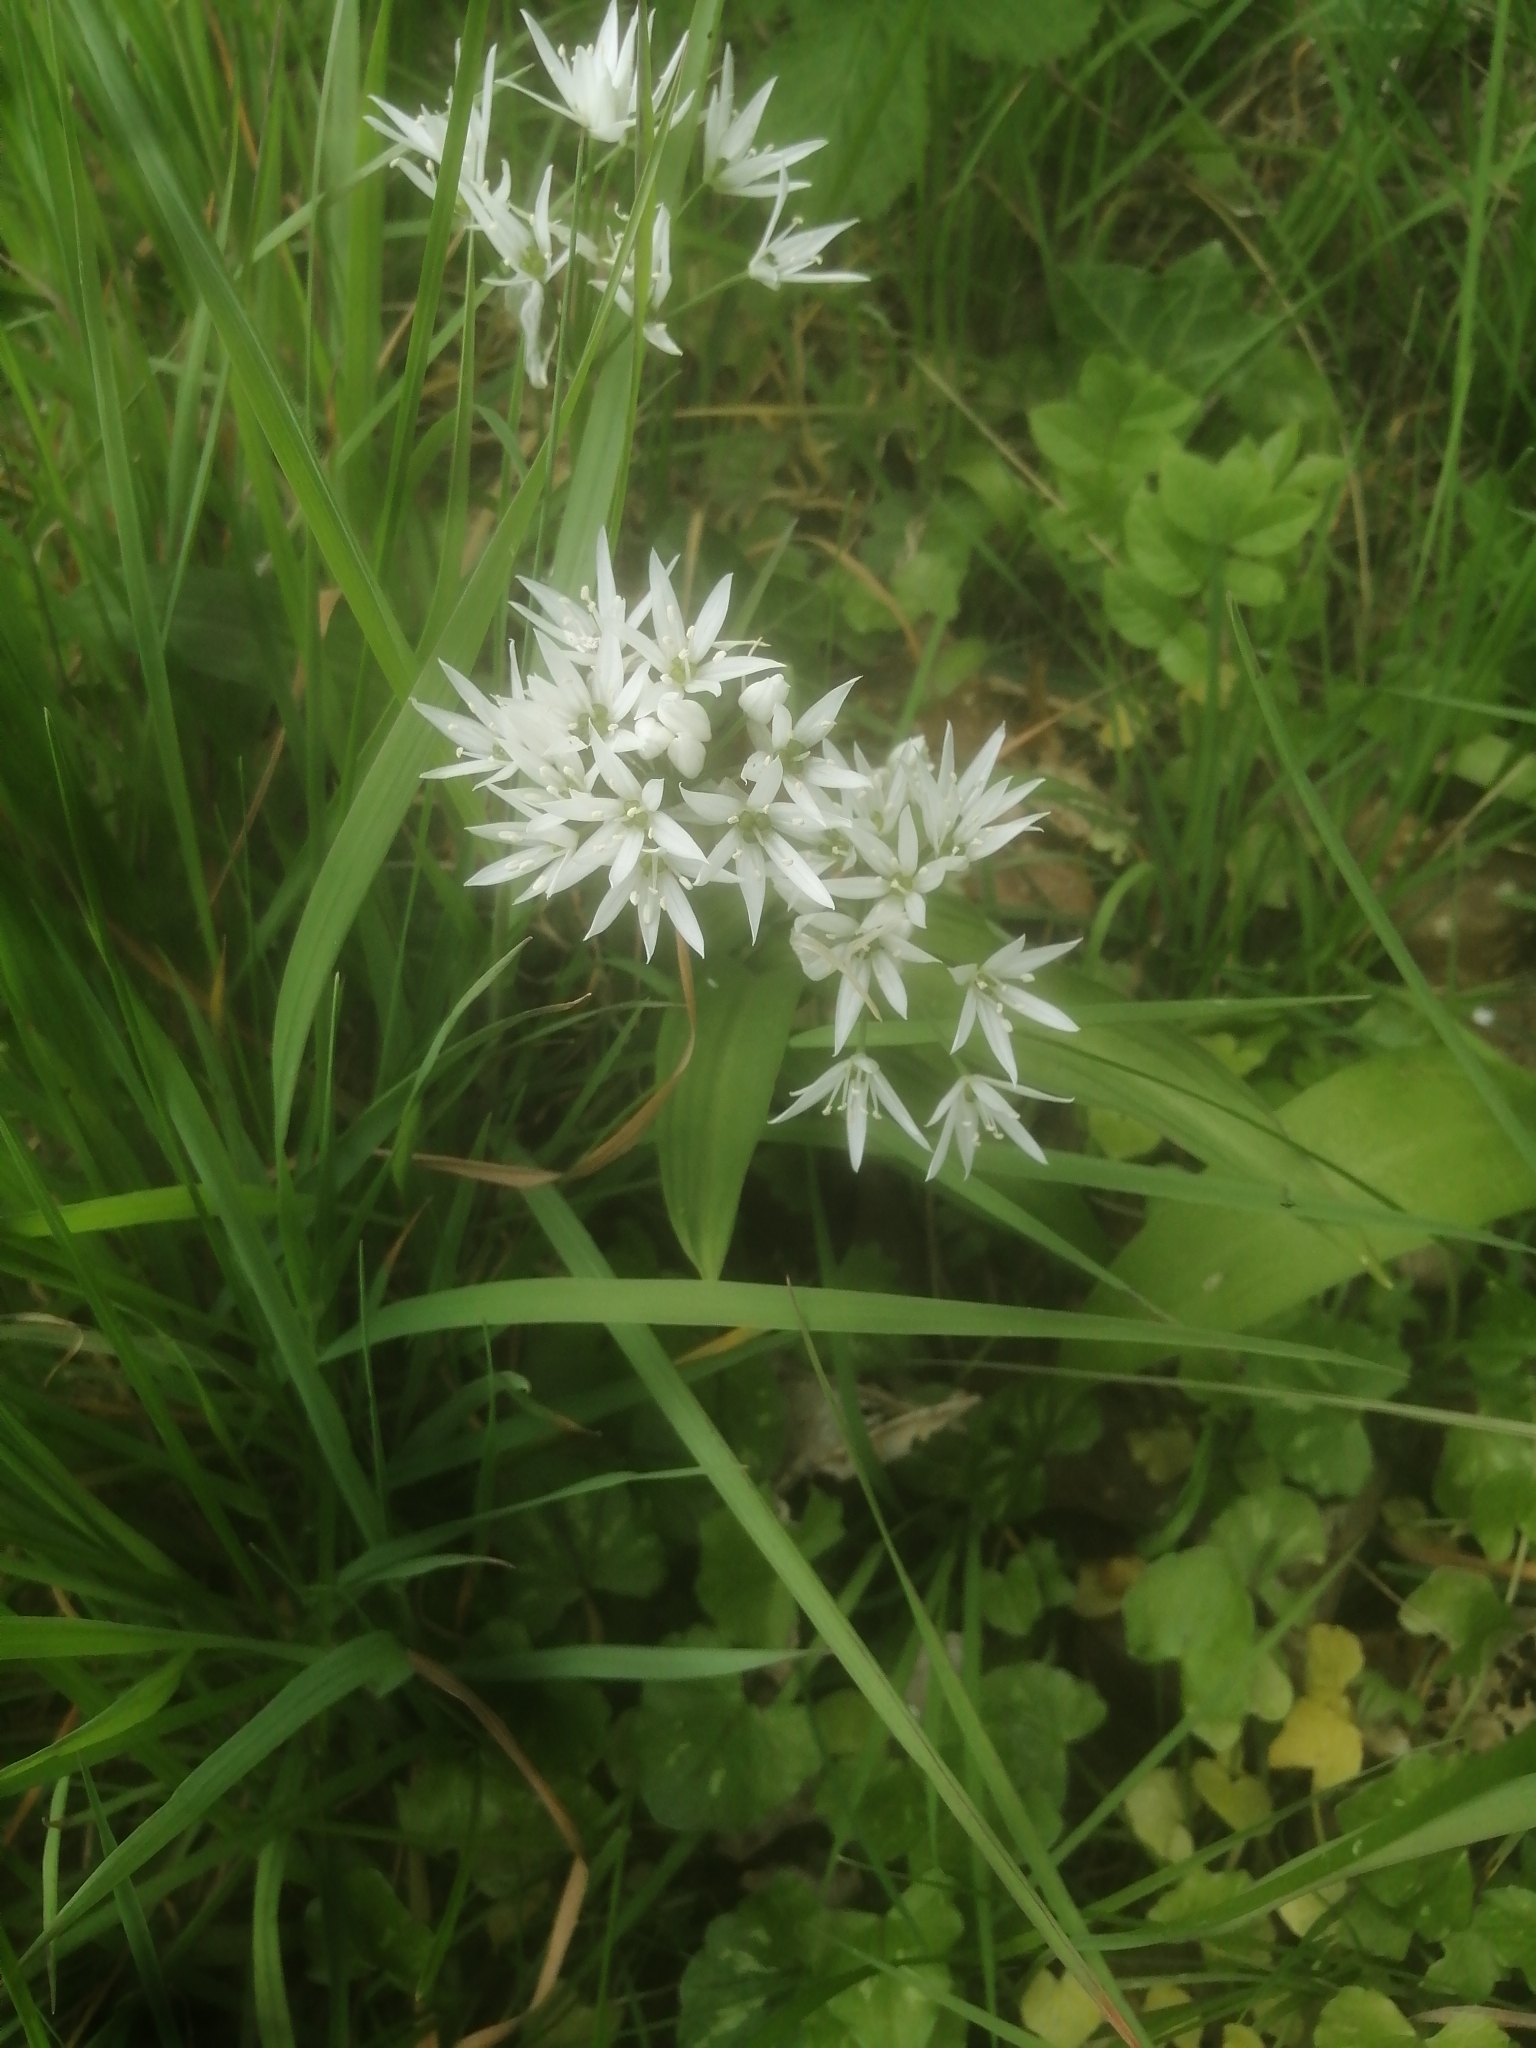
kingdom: Plantae
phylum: Tracheophyta
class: Liliopsida
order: Asparagales
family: Amaryllidaceae
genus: Allium
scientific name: Allium ursinum
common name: Ramsons
